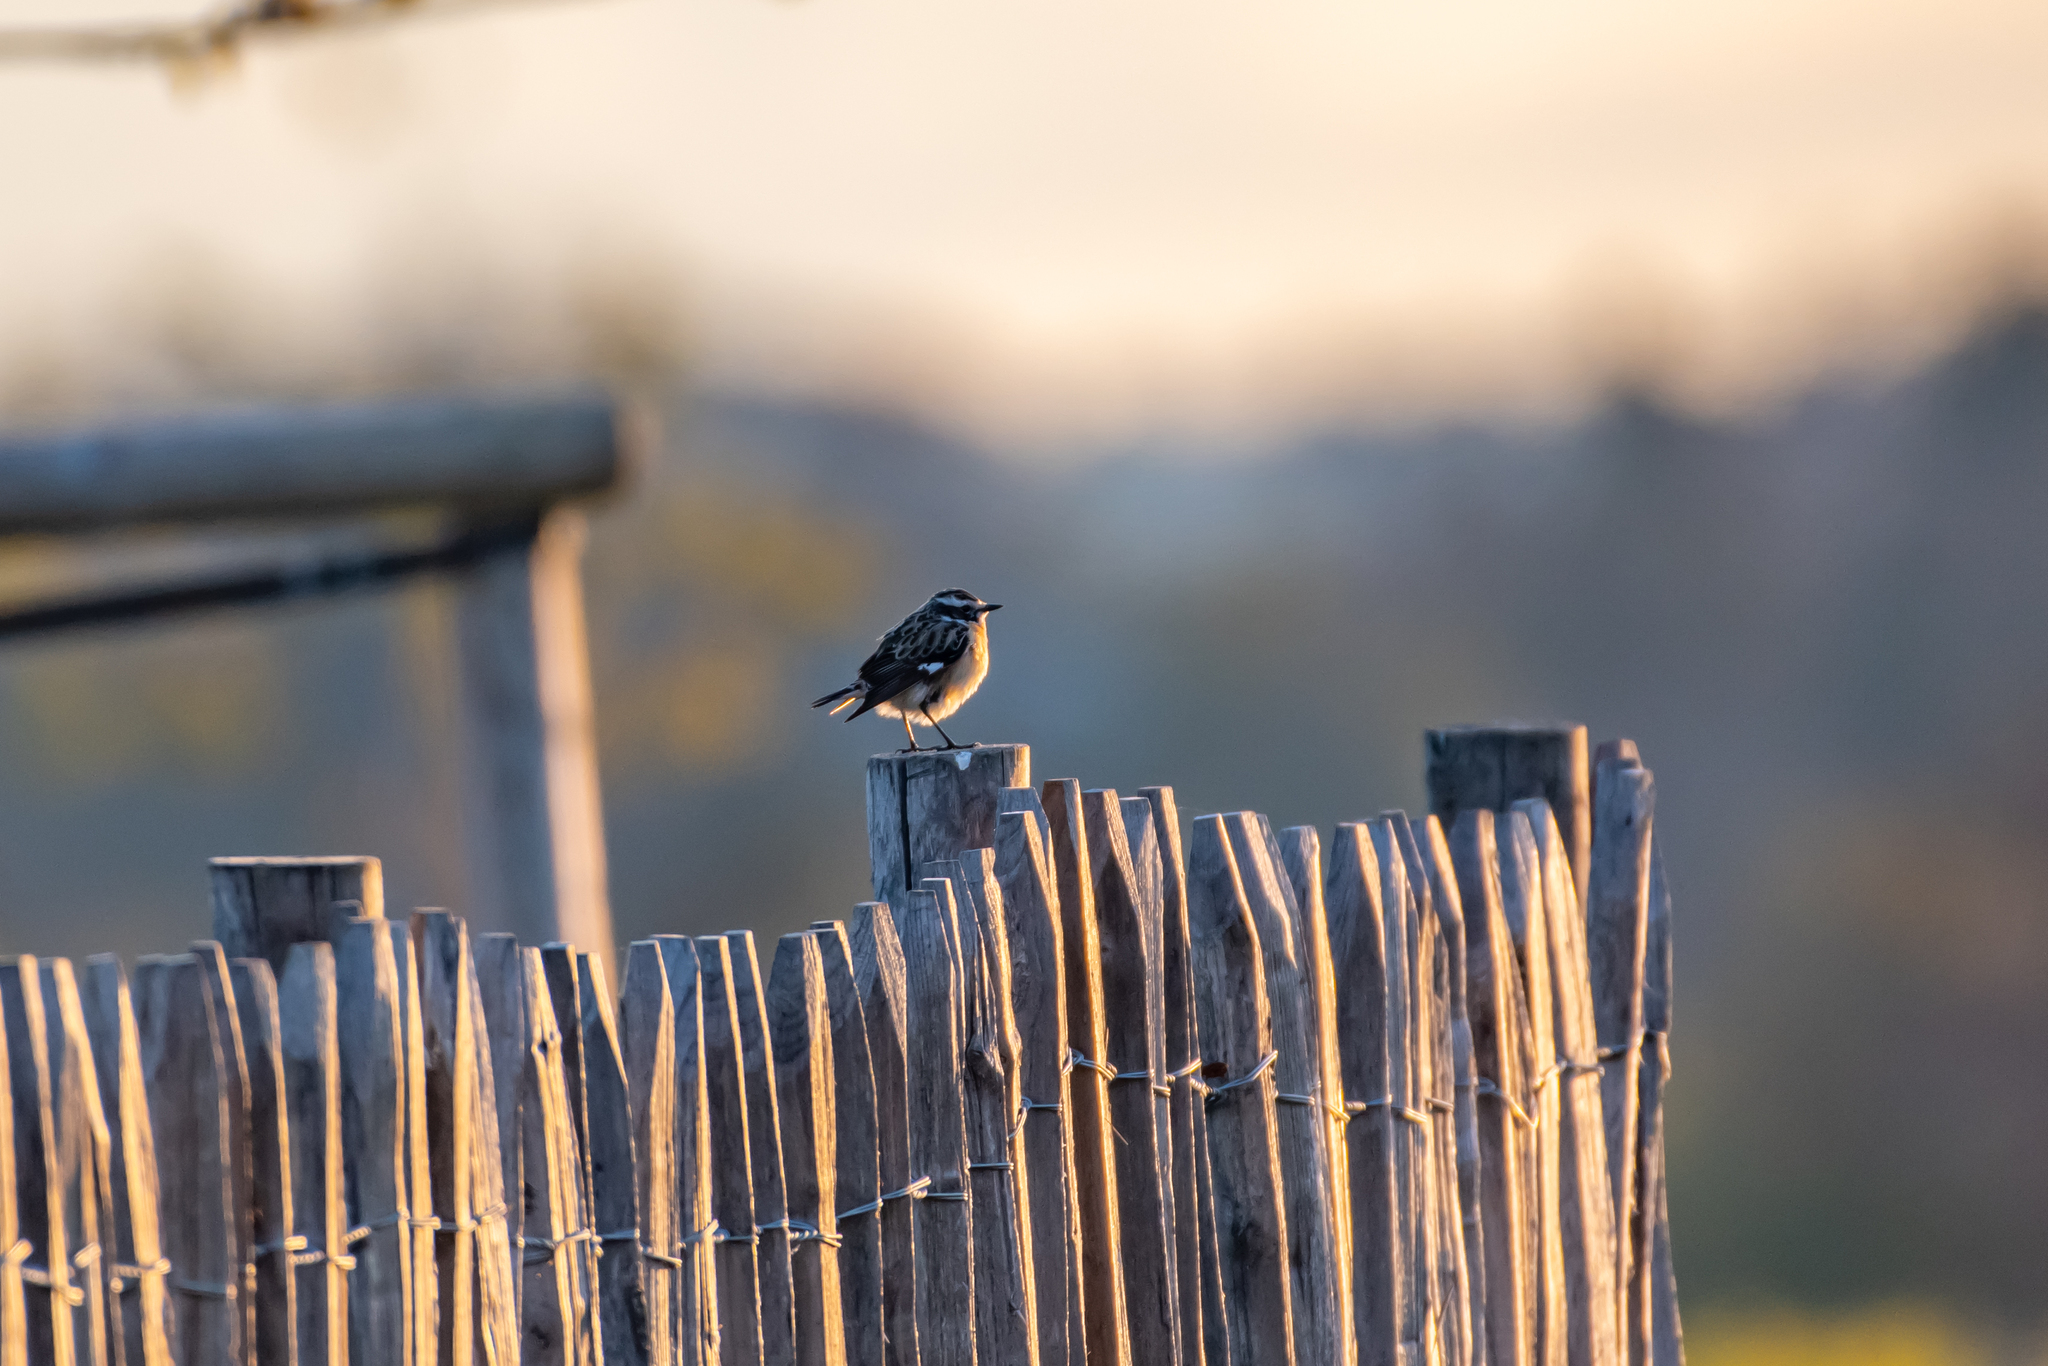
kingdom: Animalia
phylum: Chordata
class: Aves
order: Passeriformes
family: Muscicapidae
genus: Saxicola
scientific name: Saxicola rubetra
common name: Whinchat
